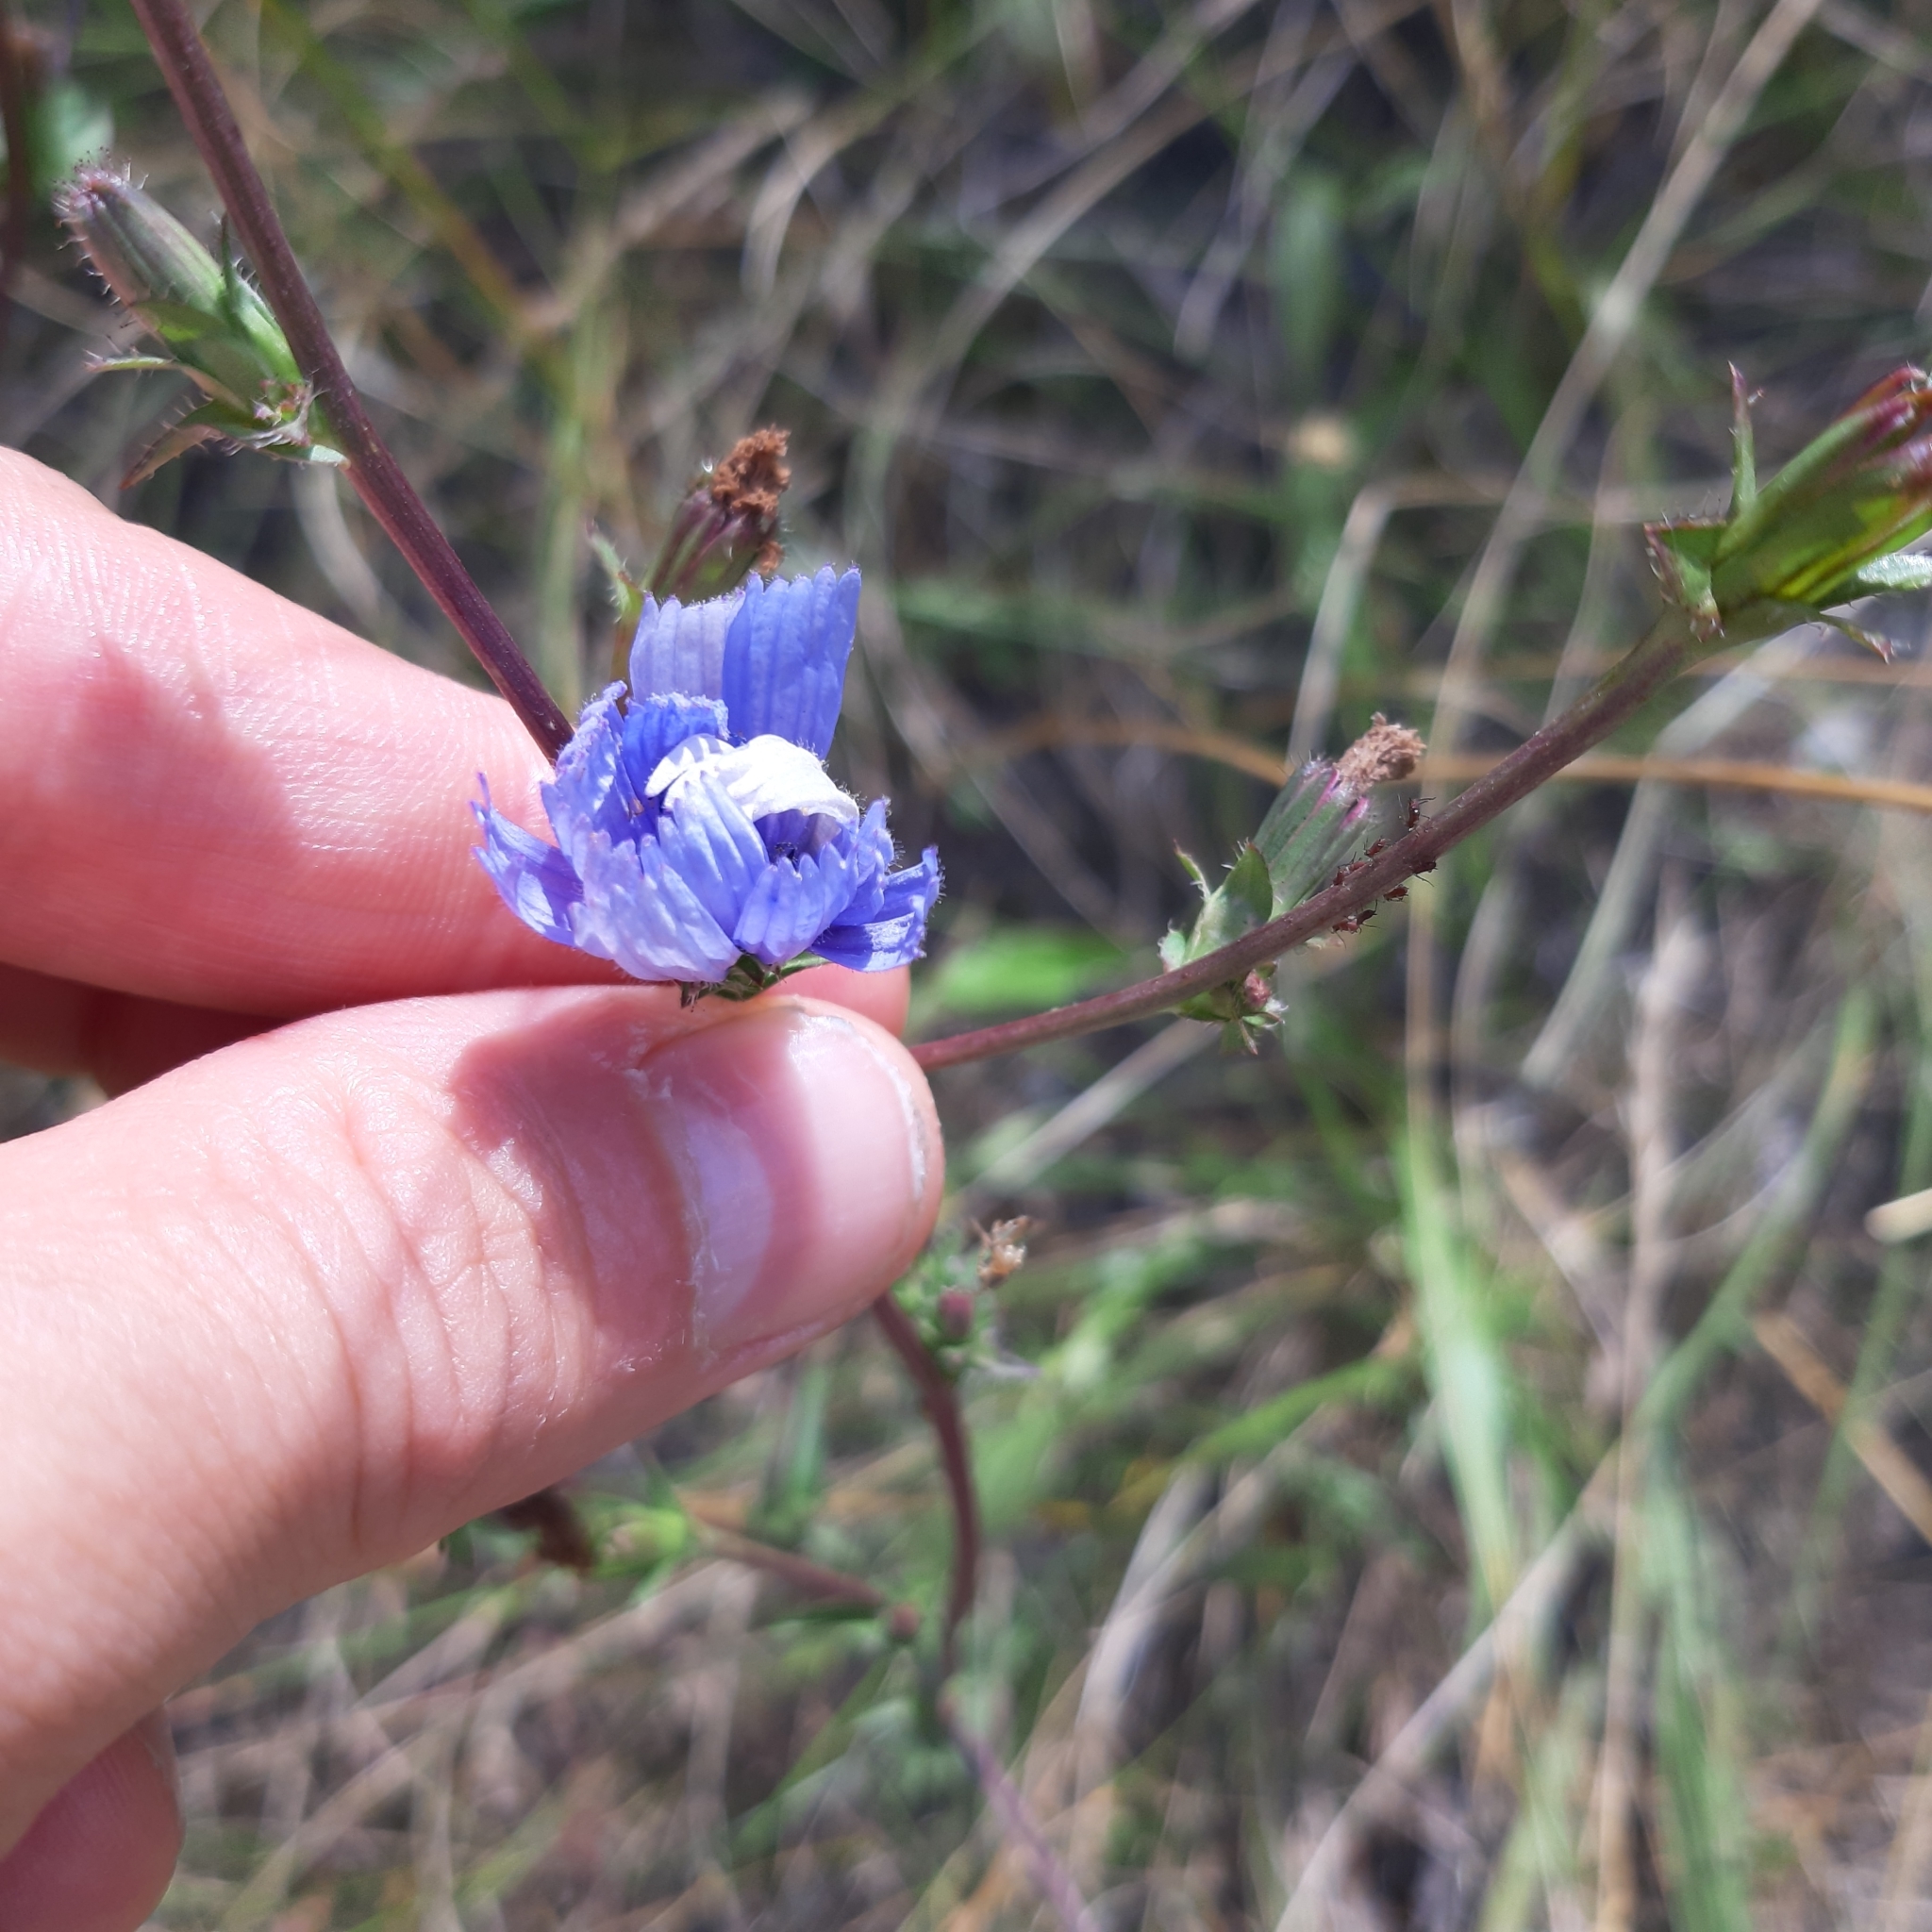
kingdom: Plantae
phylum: Tracheophyta
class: Magnoliopsida
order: Asterales
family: Asteraceae
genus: Cichorium
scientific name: Cichorium intybus
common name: Chicory
